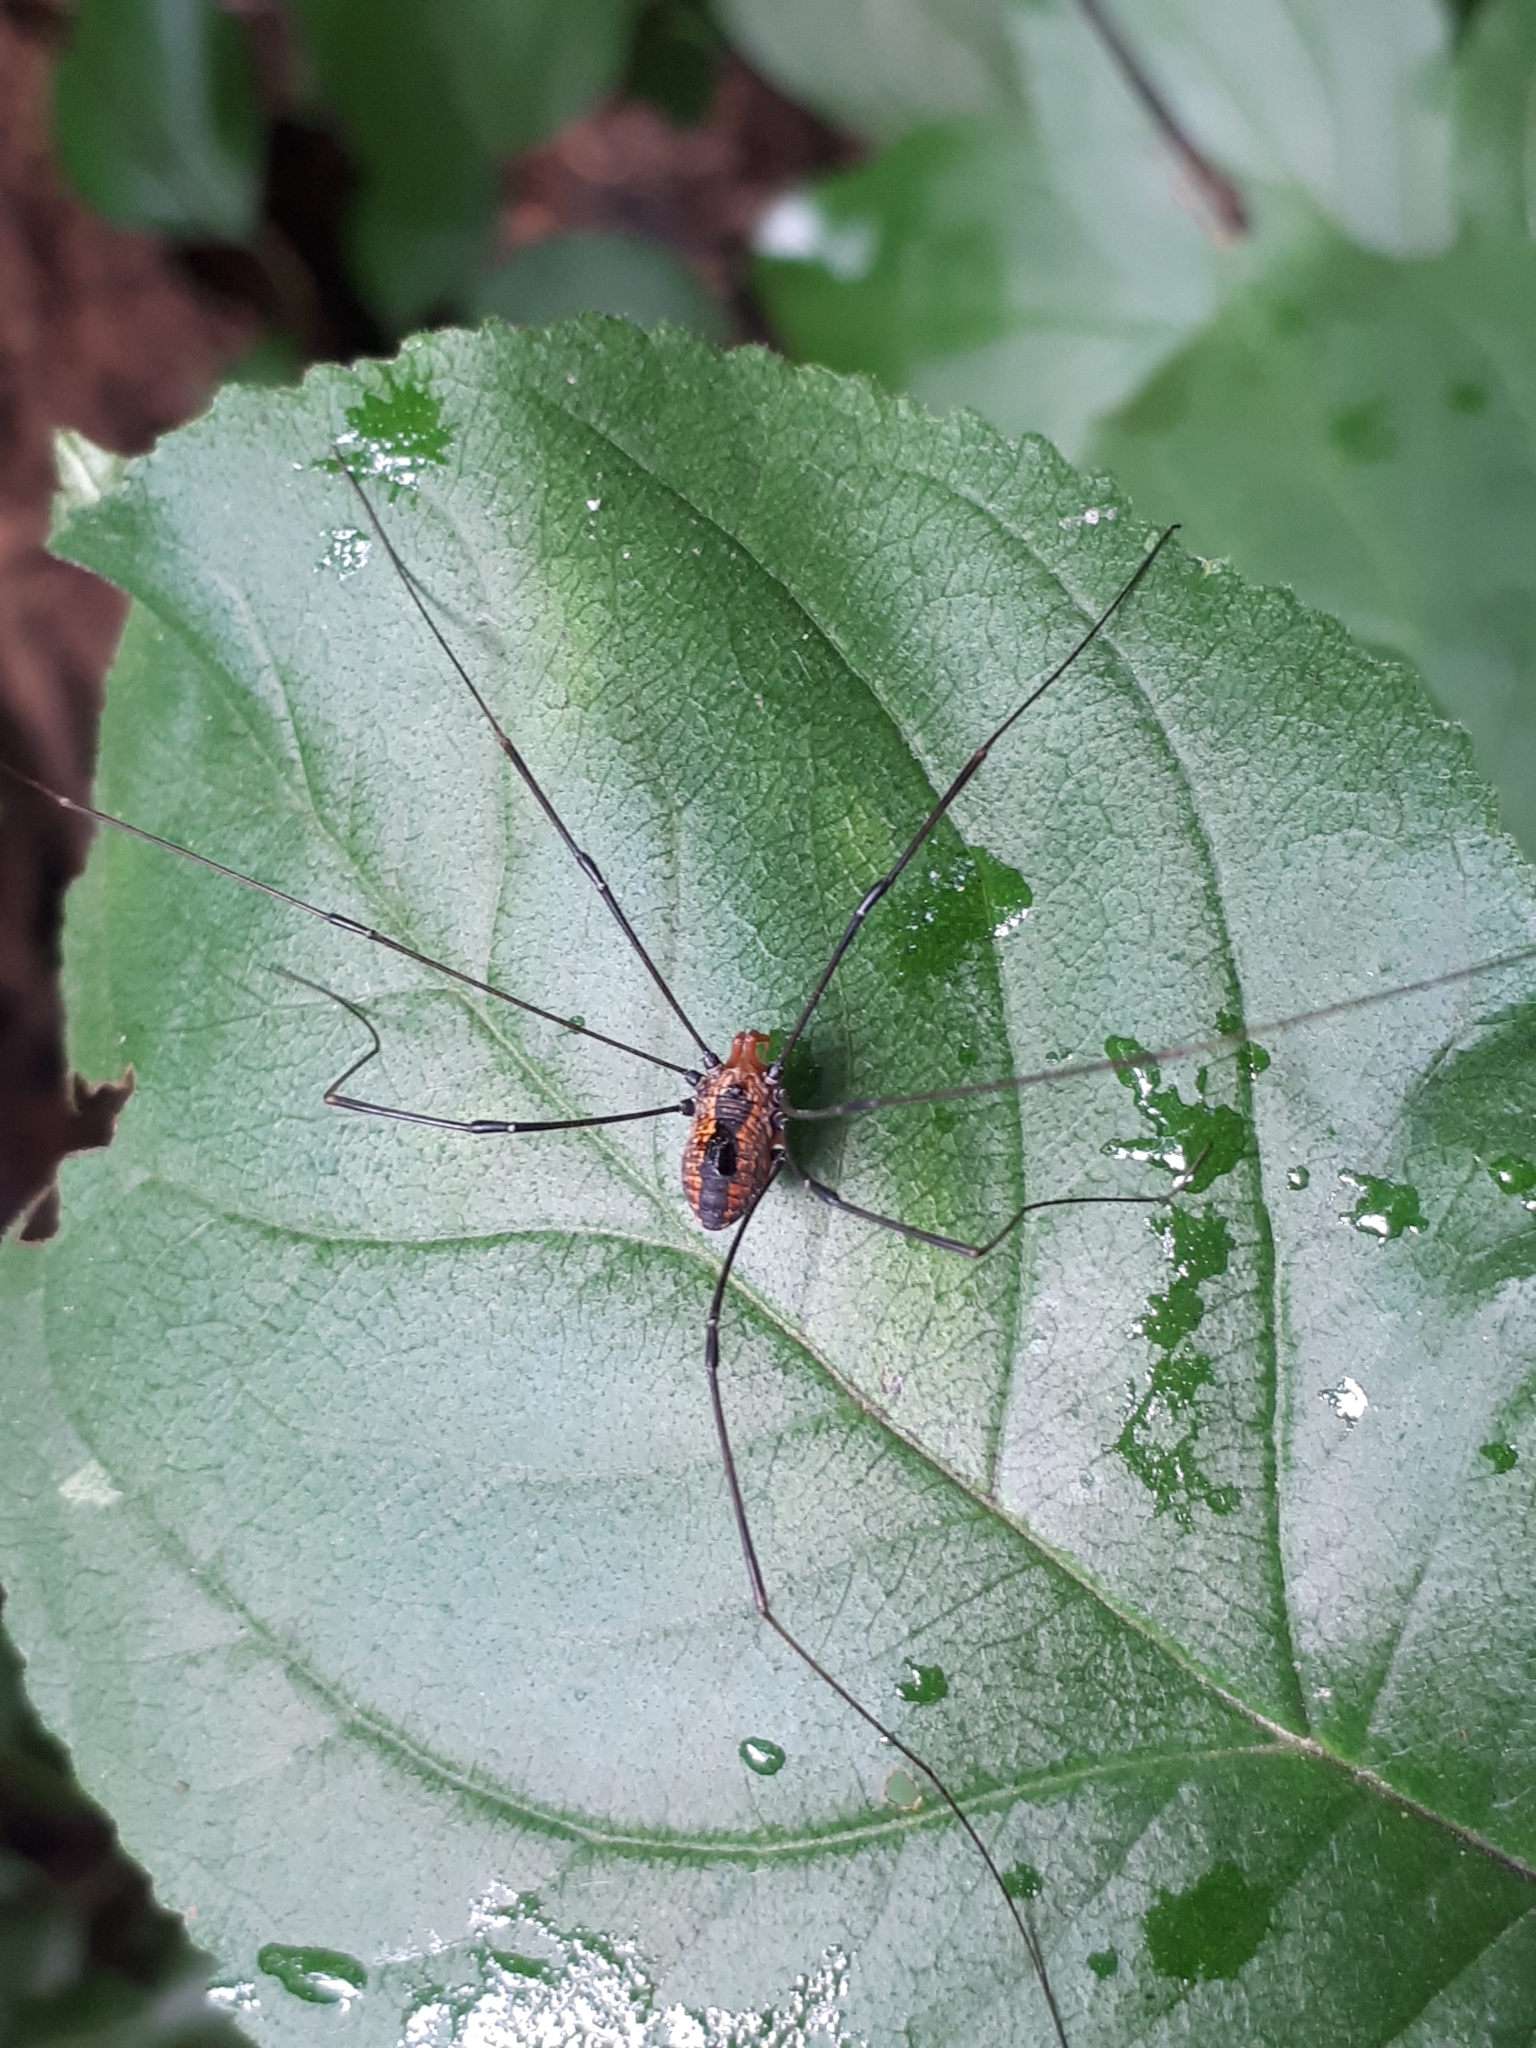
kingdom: Animalia
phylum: Arthropoda
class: Arachnida
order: Opiliones
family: Sclerosomatidae
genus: Leiobunum
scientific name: Leiobunum vittatum
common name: Eastern harvestman
